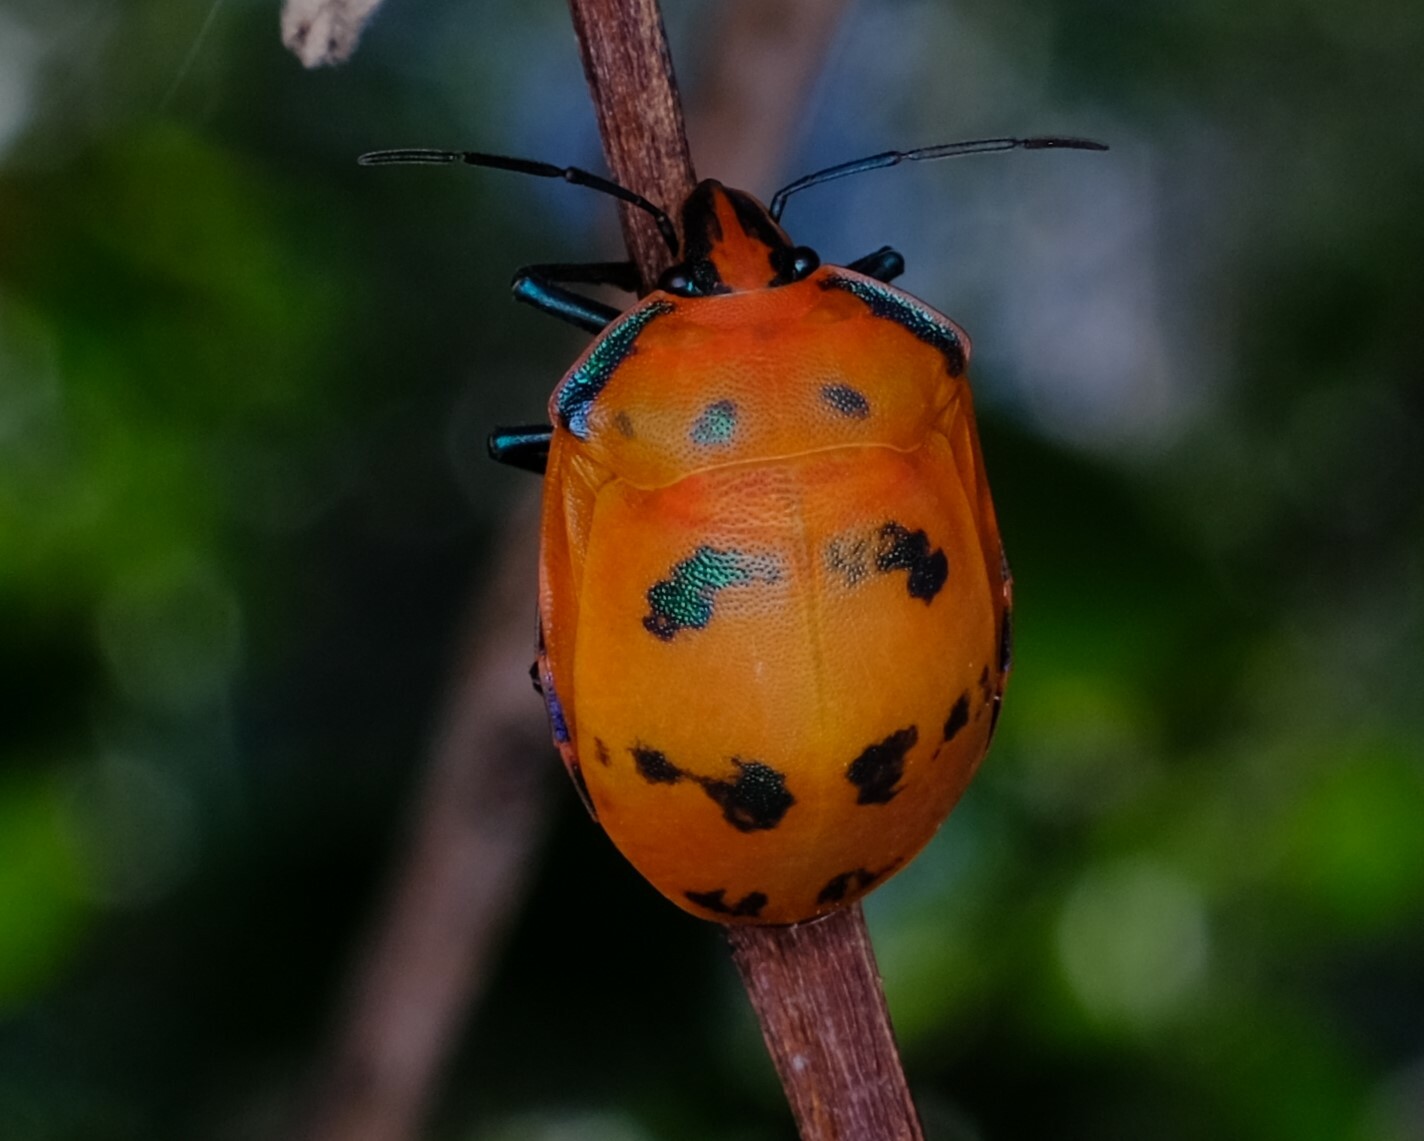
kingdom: Animalia
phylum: Arthropoda
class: Insecta
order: Hemiptera
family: Scutelleridae
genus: Tectocoris
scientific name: Tectocoris diophthalmus
